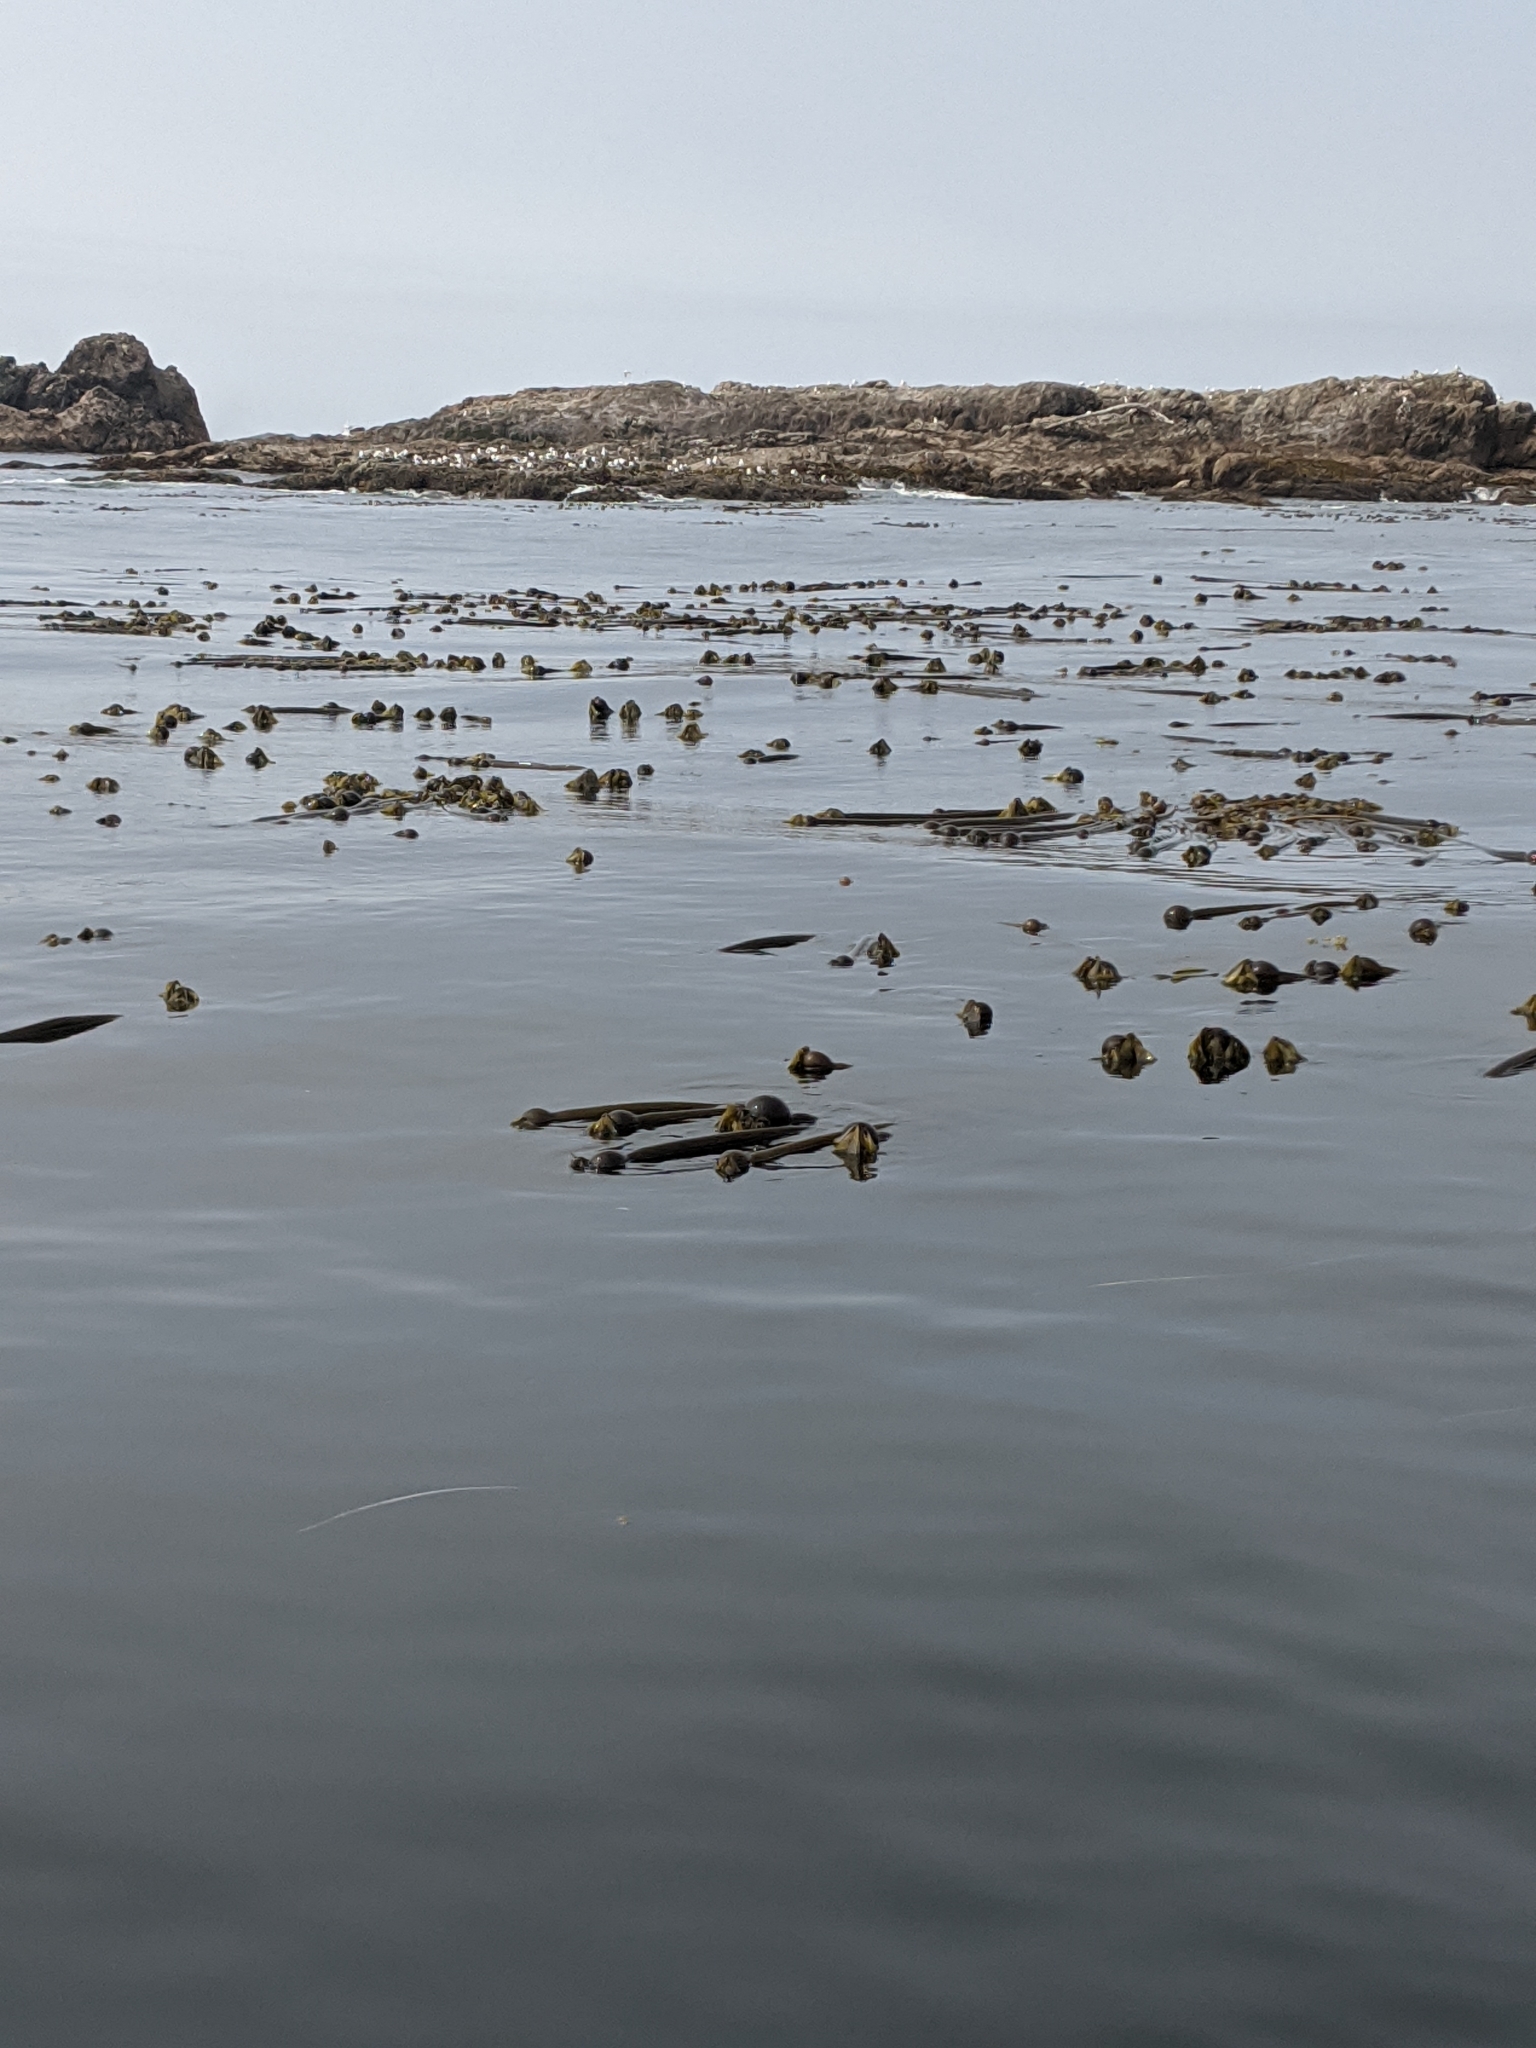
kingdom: Chromista
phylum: Ochrophyta
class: Phaeophyceae
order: Laminariales
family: Laminariaceae
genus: Nereocystis
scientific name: Nereocystis luetkeana
